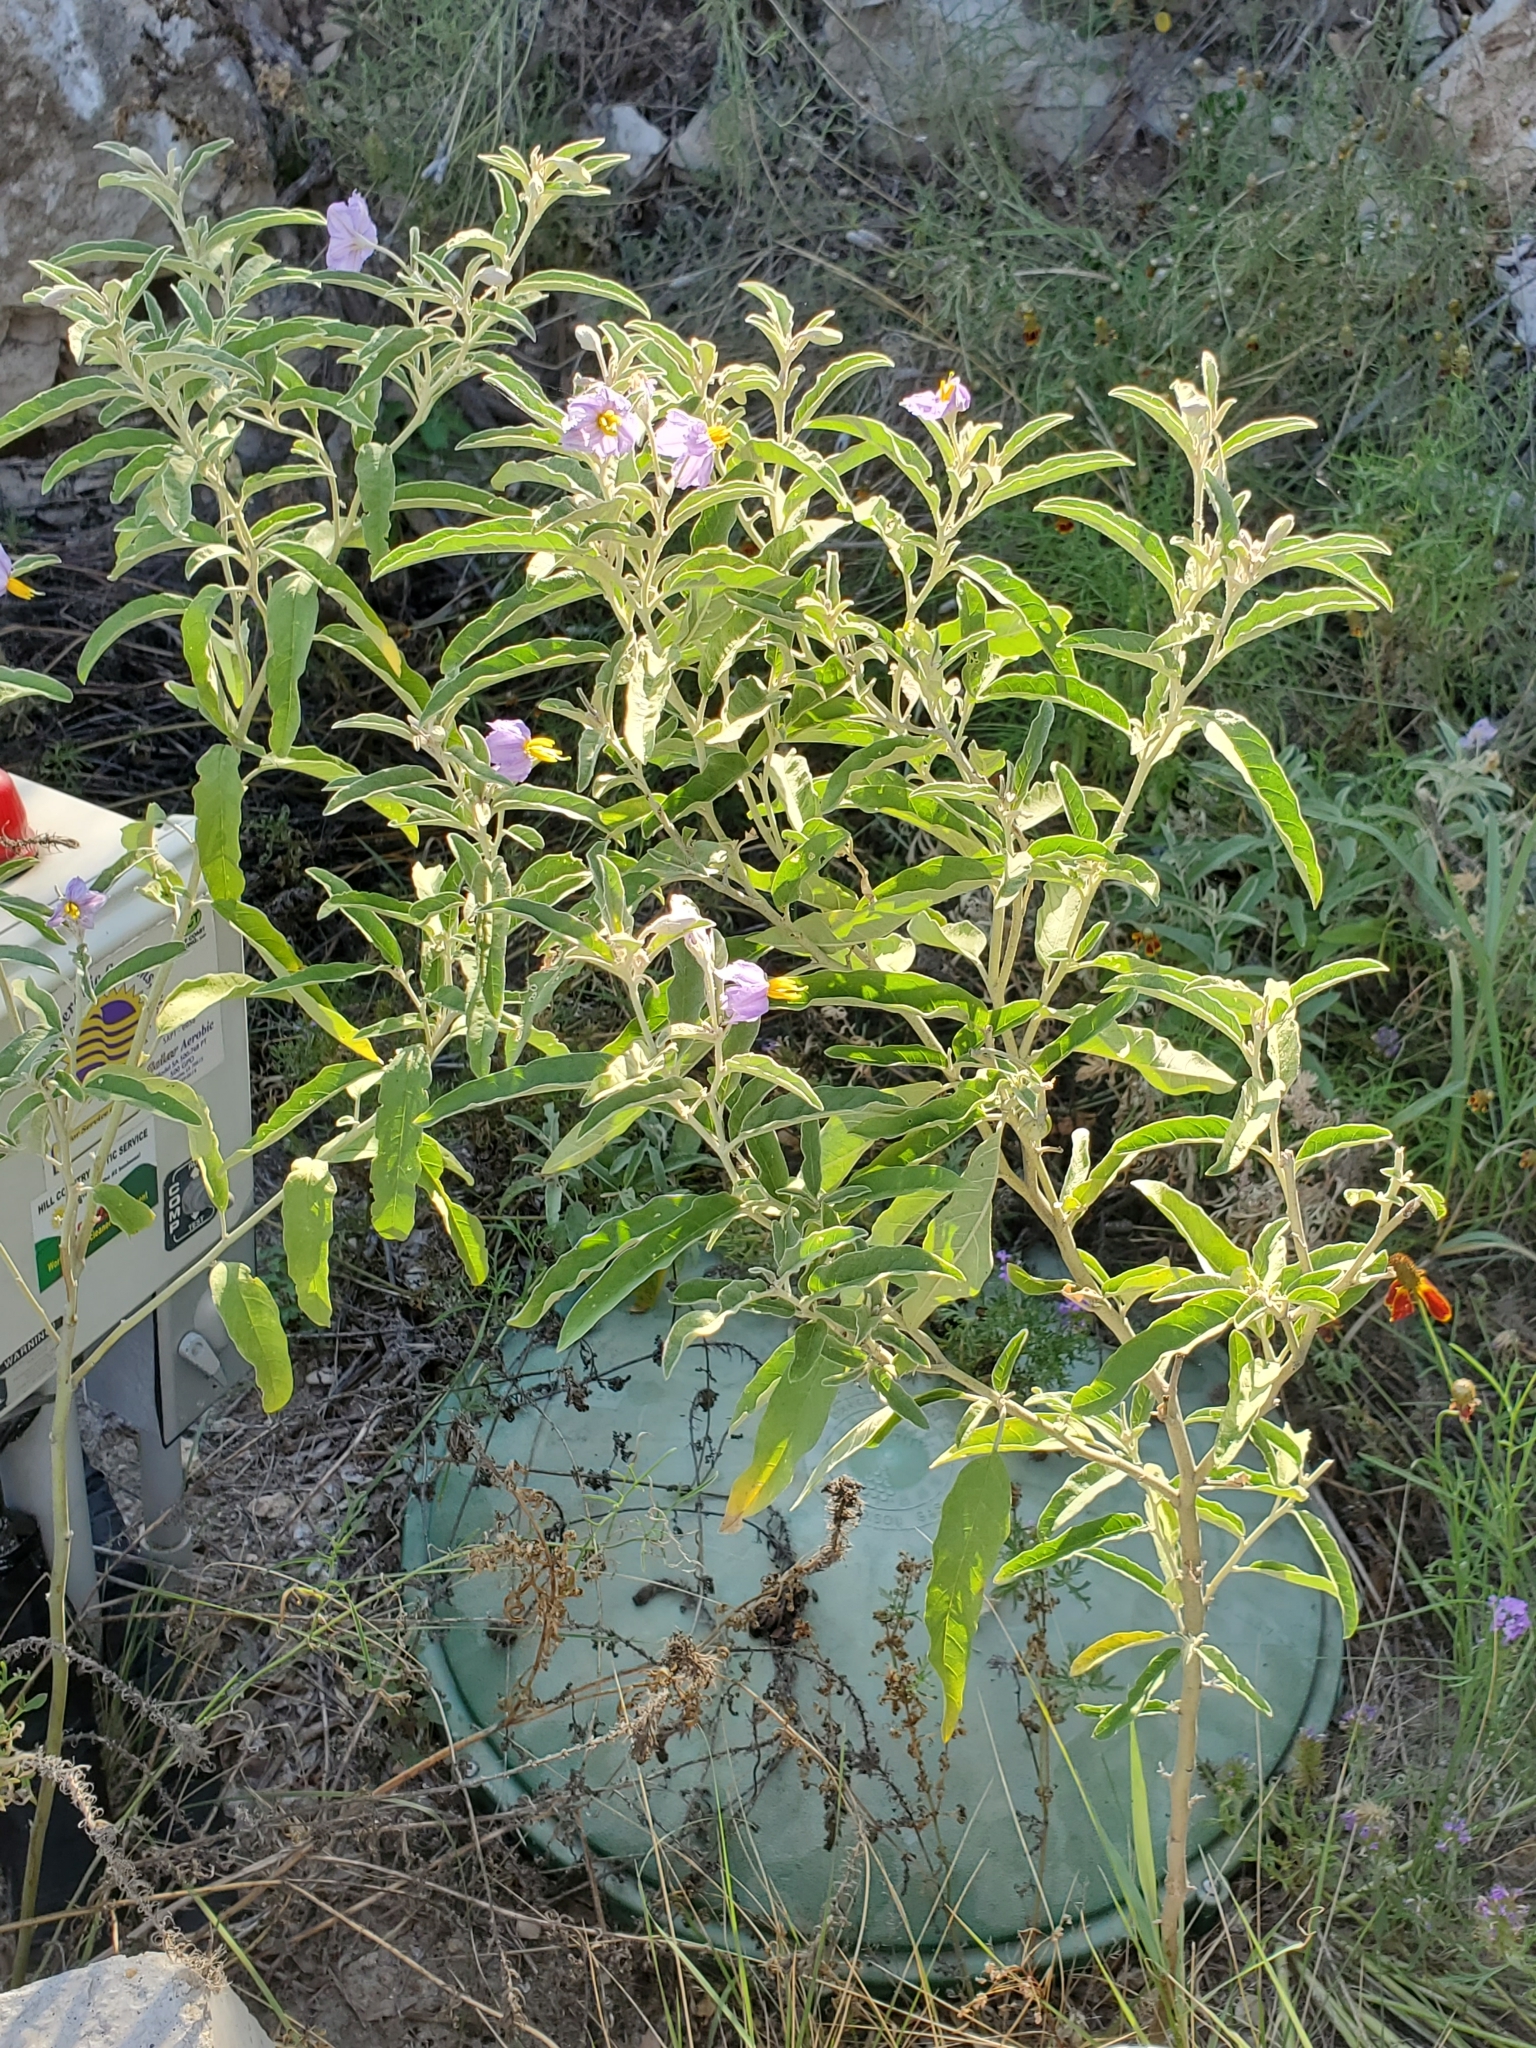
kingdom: Plantae
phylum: Tracheophyta
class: Magnoliopsida
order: Solanales
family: Solanaceae
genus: Solanum
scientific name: Solanum elaeagnifolium
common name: Silverleaf nightshade
